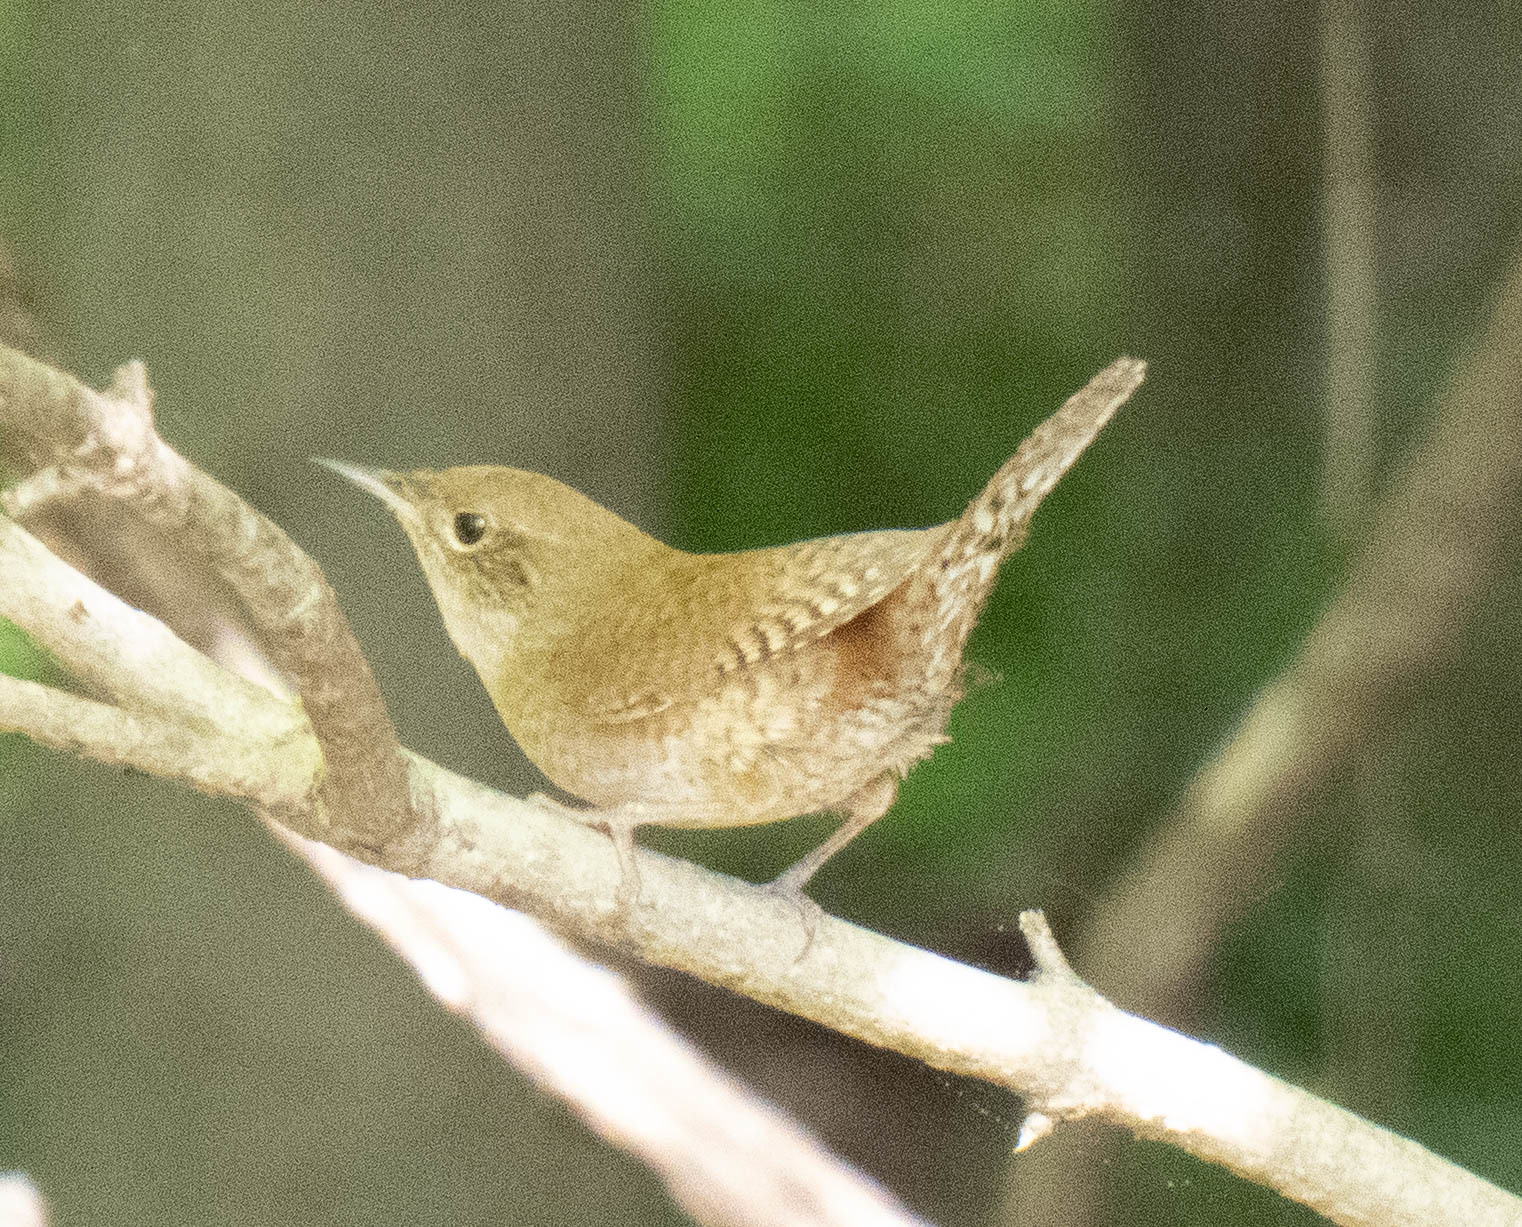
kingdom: Animalia
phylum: Chordata
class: Aves
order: Passeriformes
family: Troglodytidae
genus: Troglodytes
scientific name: Troglodytes aedon
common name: House wren
